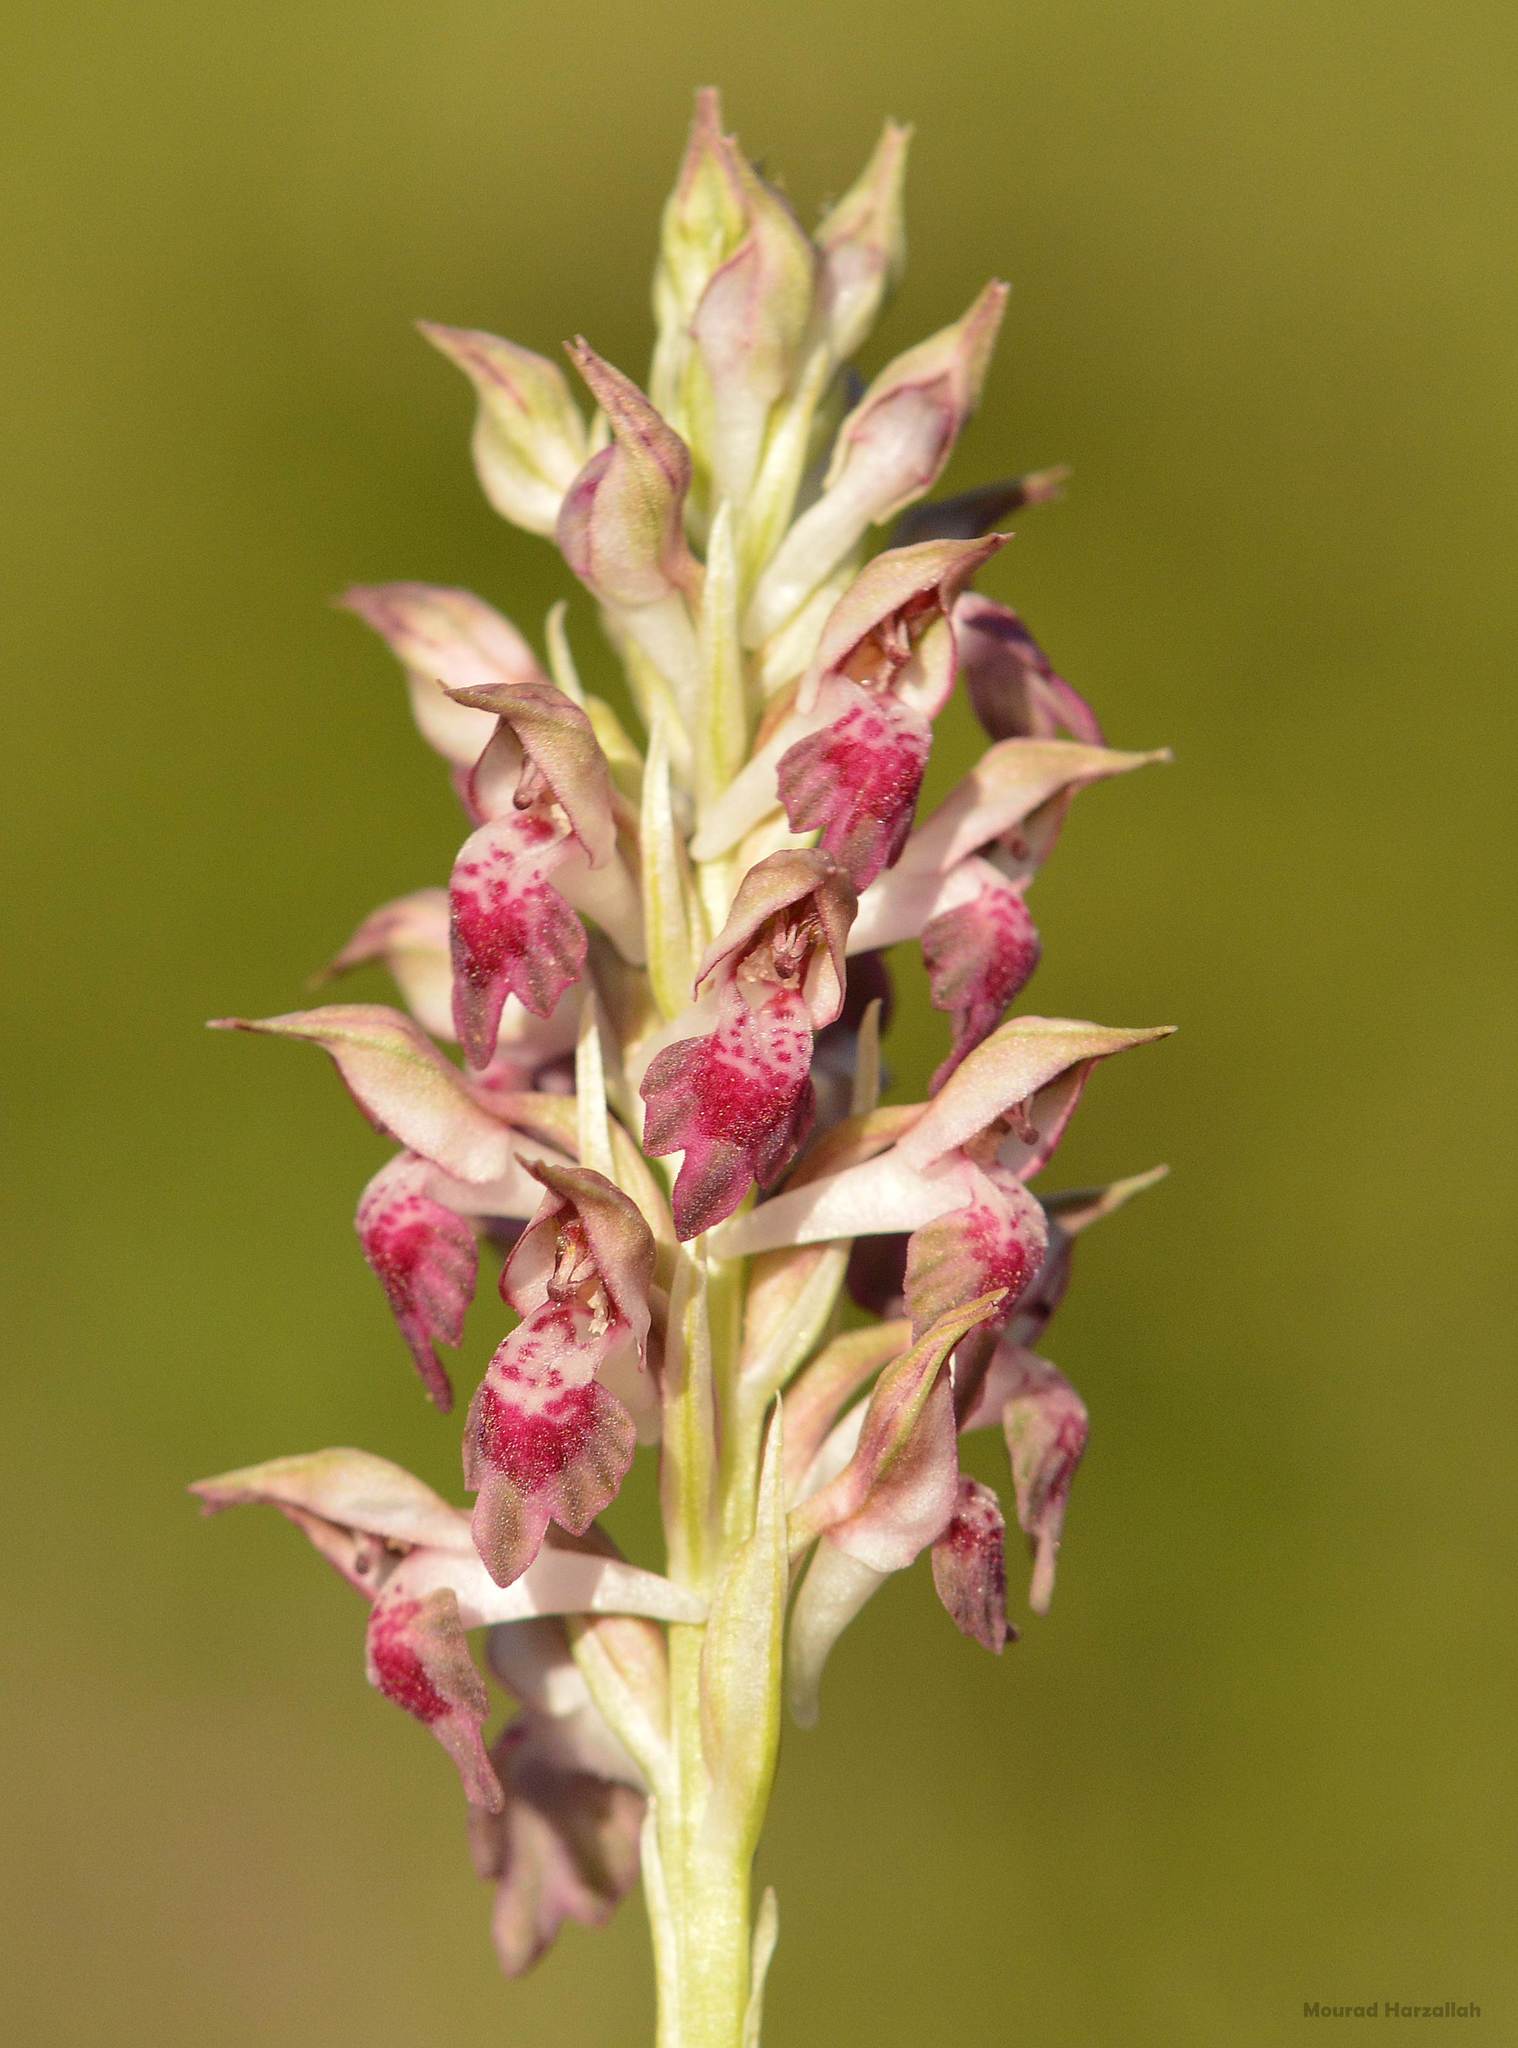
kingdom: Plantae
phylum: Tracheophyta
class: Liliopsida
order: Asparagales
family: Orchidaceae
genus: Anacamptis
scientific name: Anacamptis coriophora
